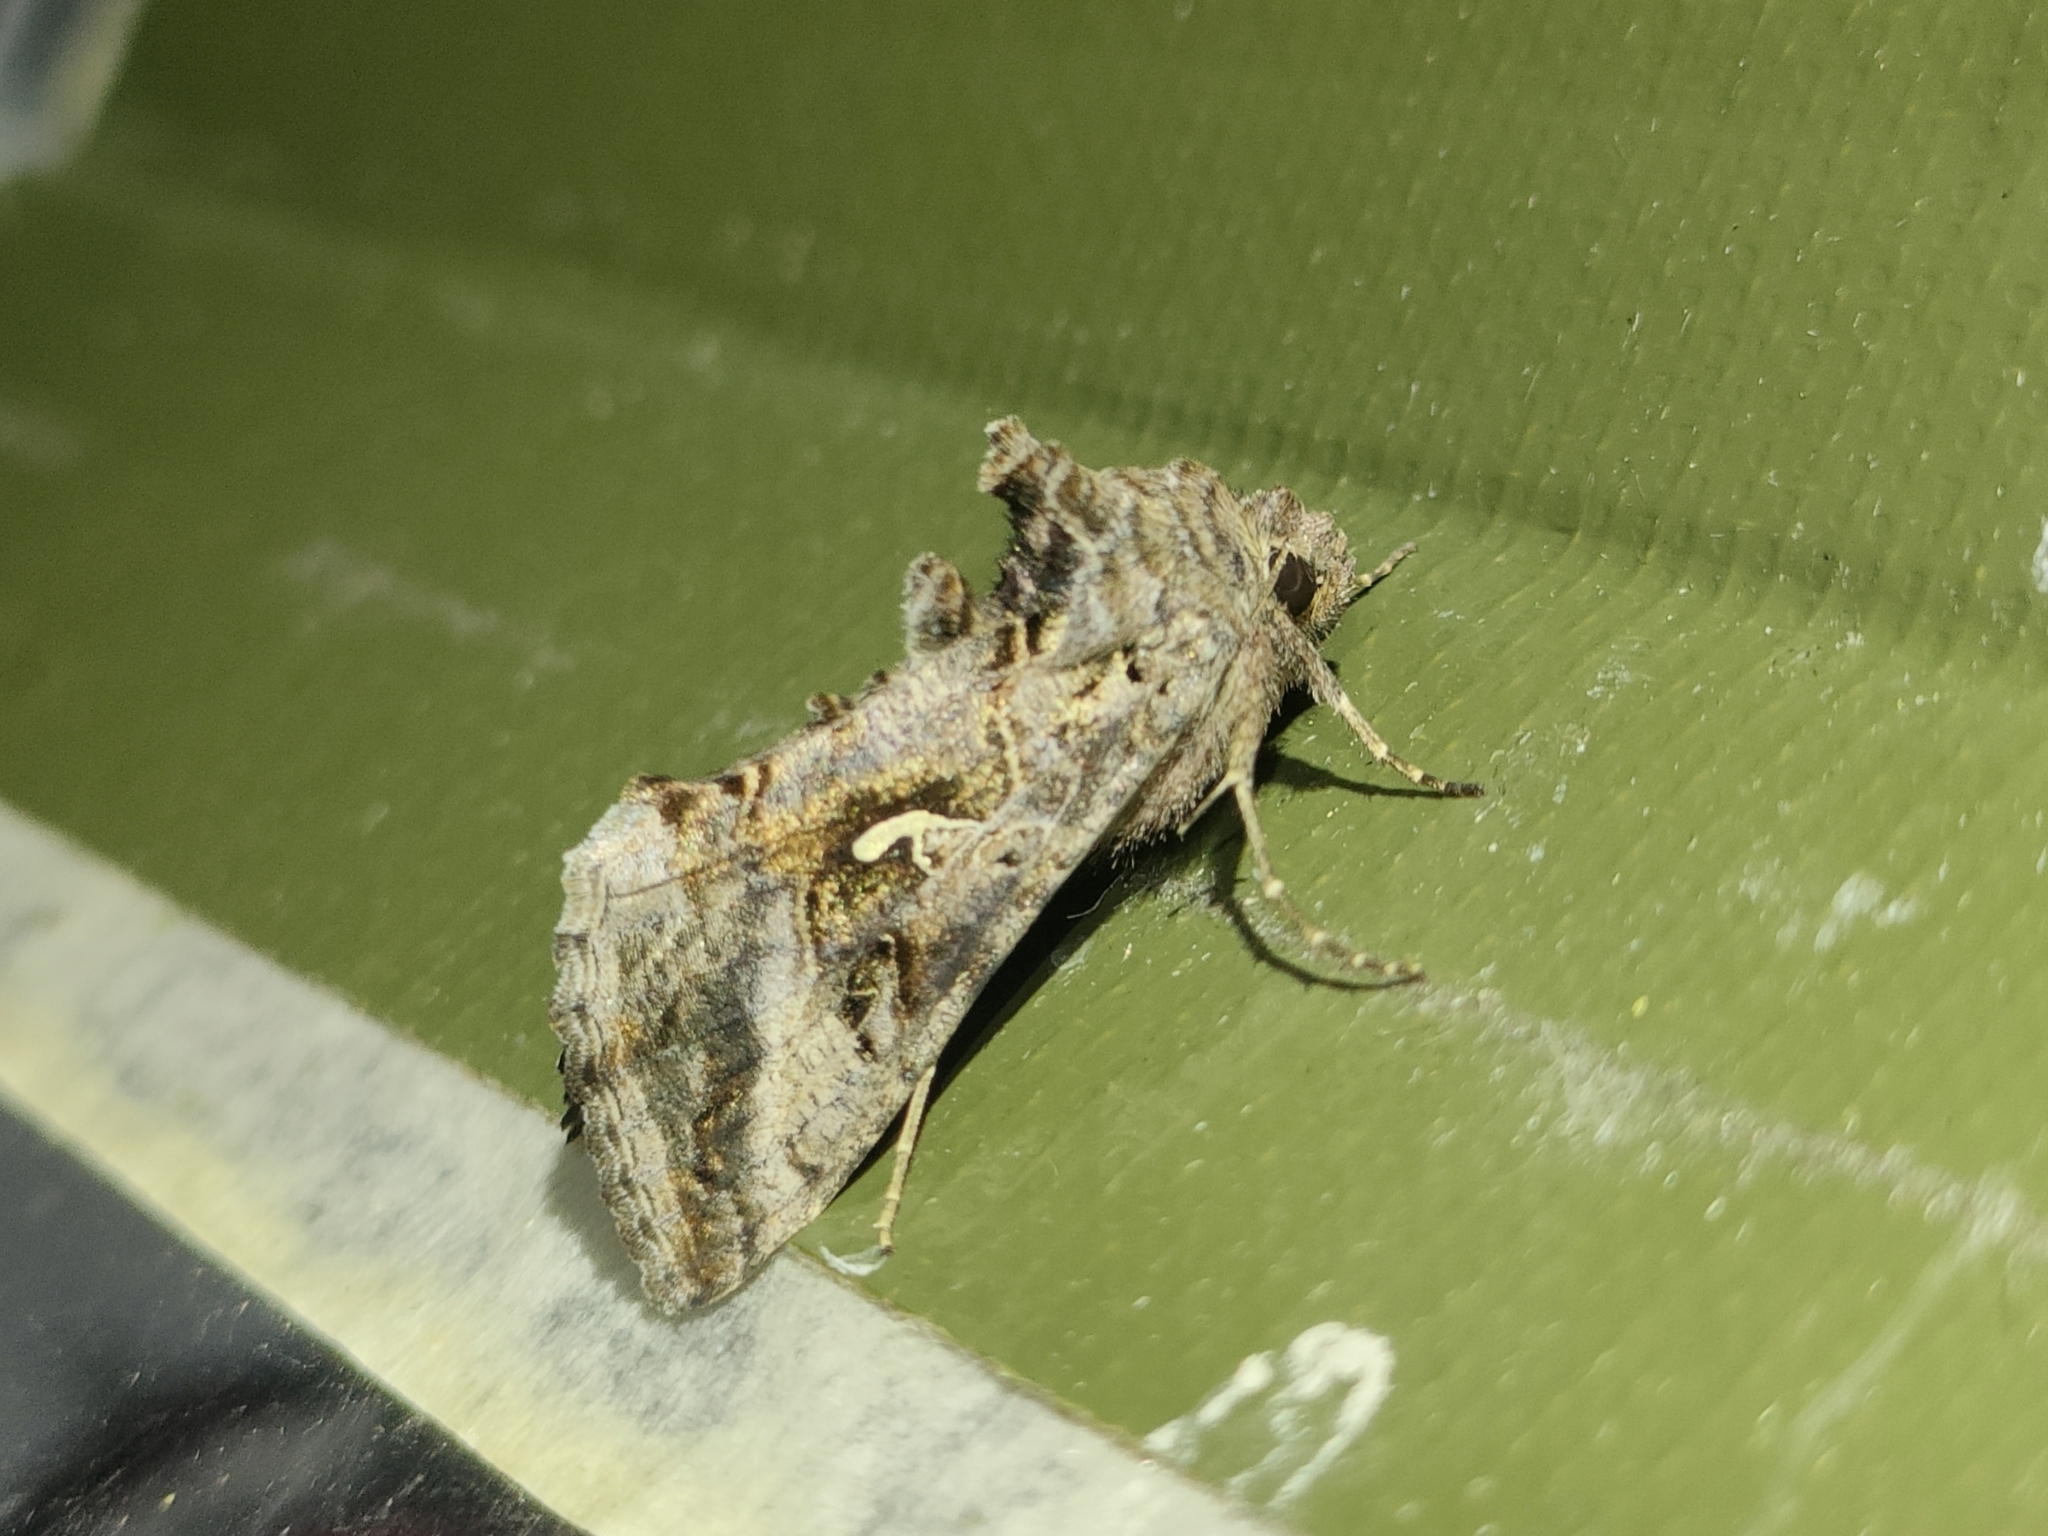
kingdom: Animalia
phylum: Arthropoda
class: Insecta
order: Lepidoptera
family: Noctuidae
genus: Autographa
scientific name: Autographa gamma
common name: Silver y
